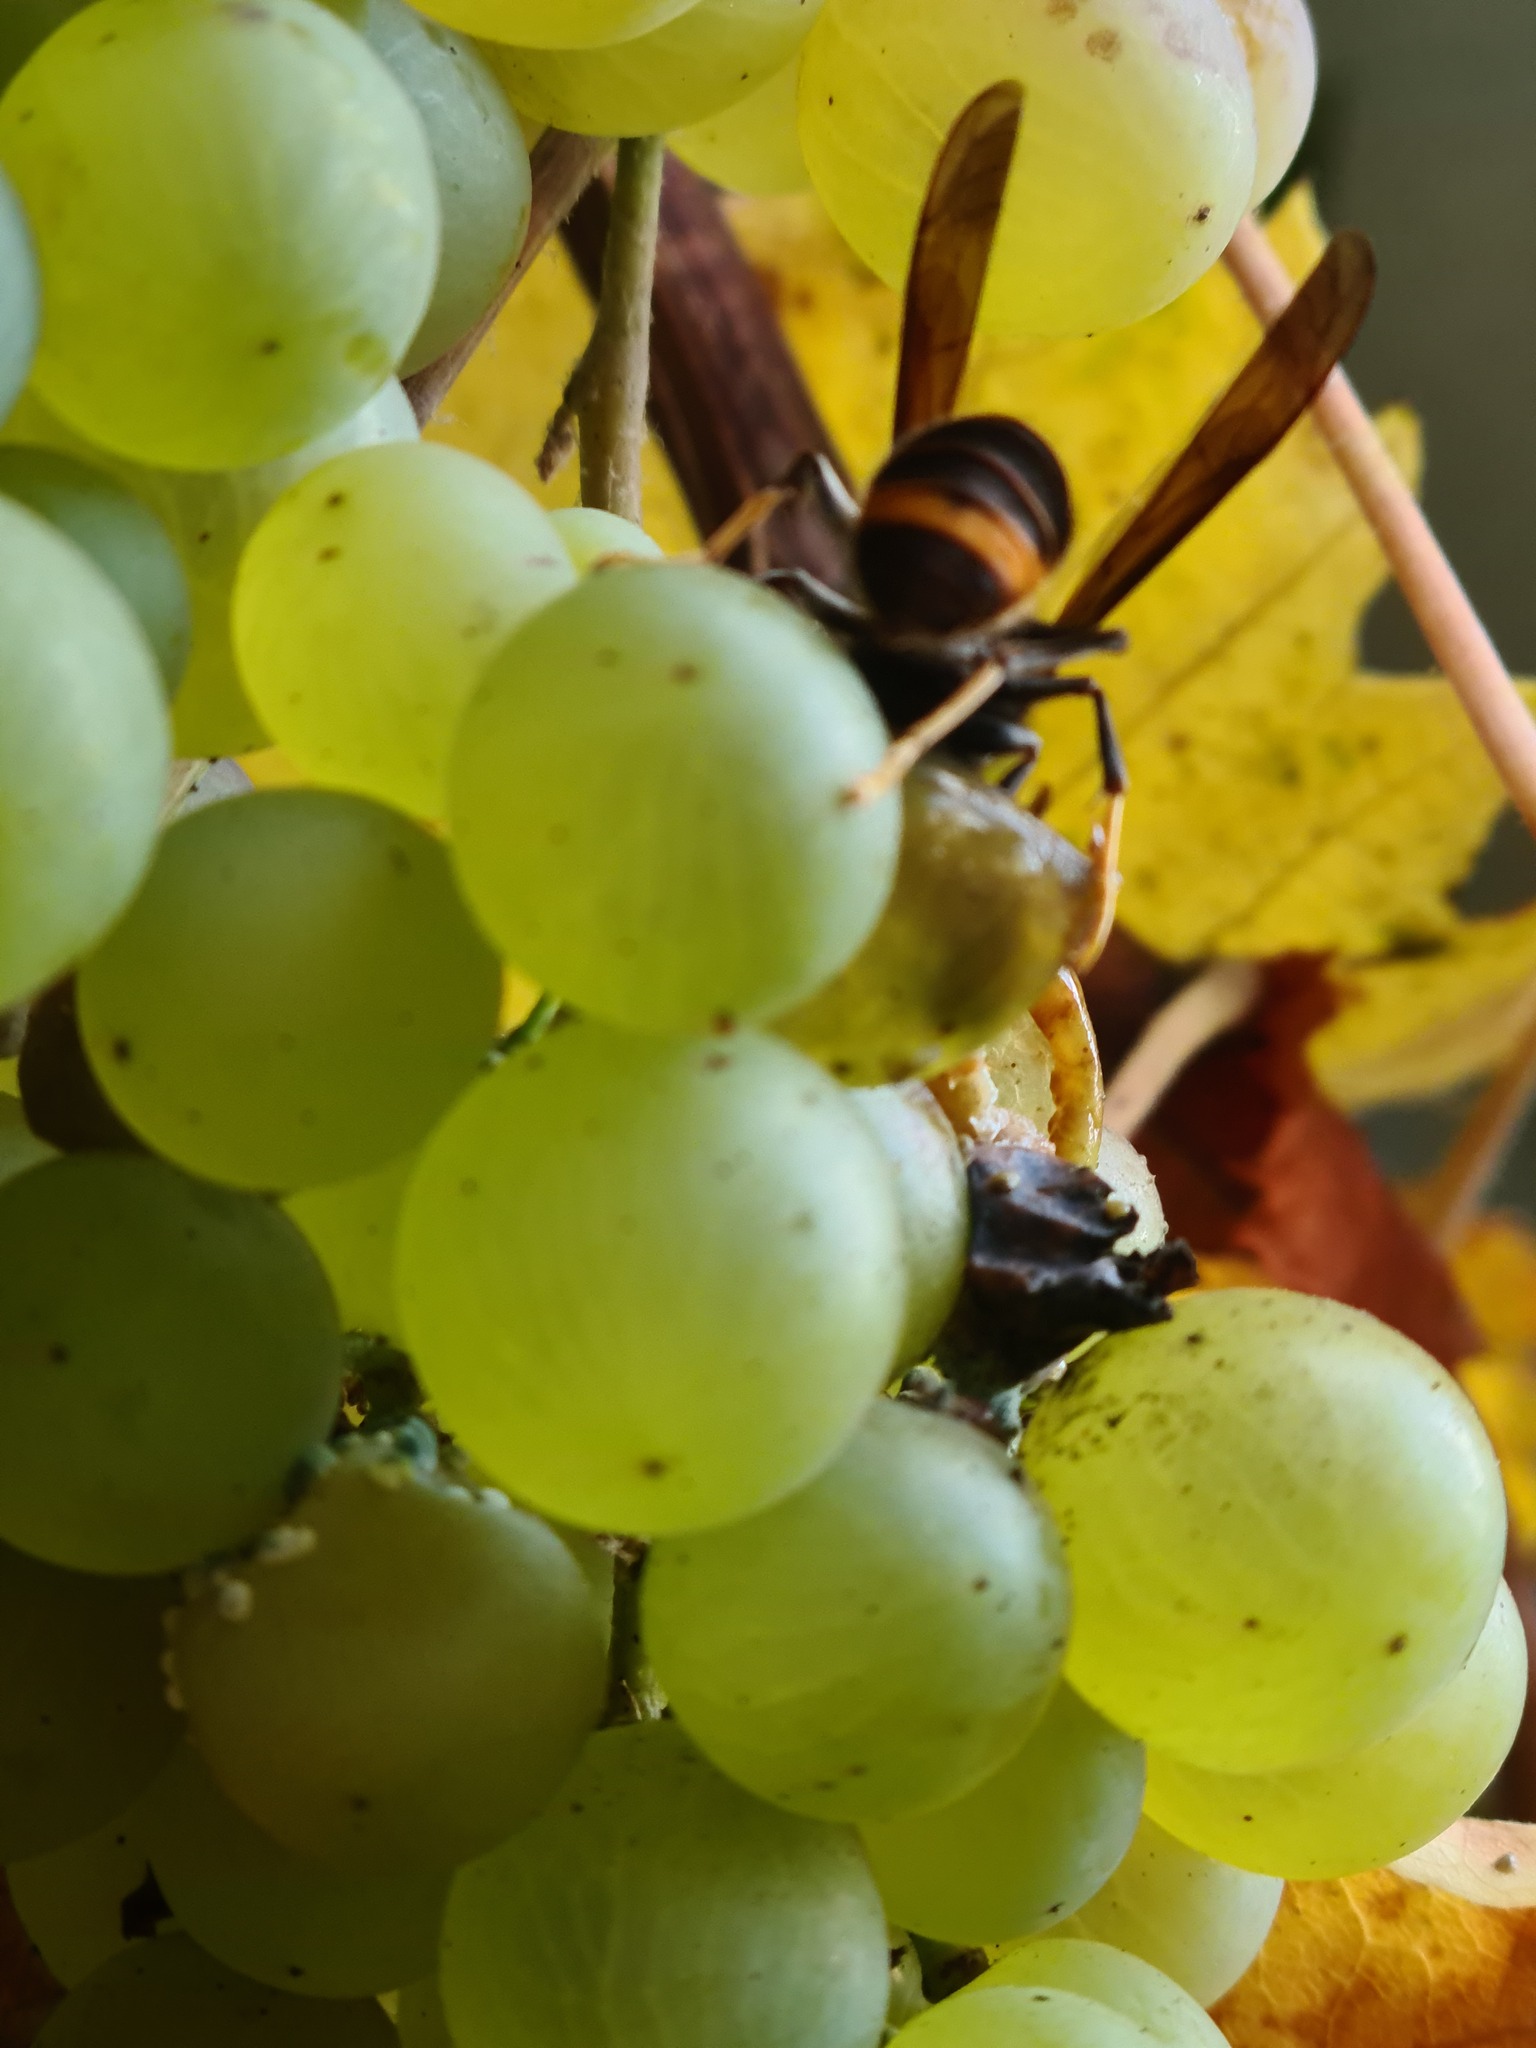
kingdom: Animalia
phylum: Arthropoda
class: Insecta
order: Hymenoptera
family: Vespidae
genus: Vespa
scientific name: Vespa velutina
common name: Asian hornet
